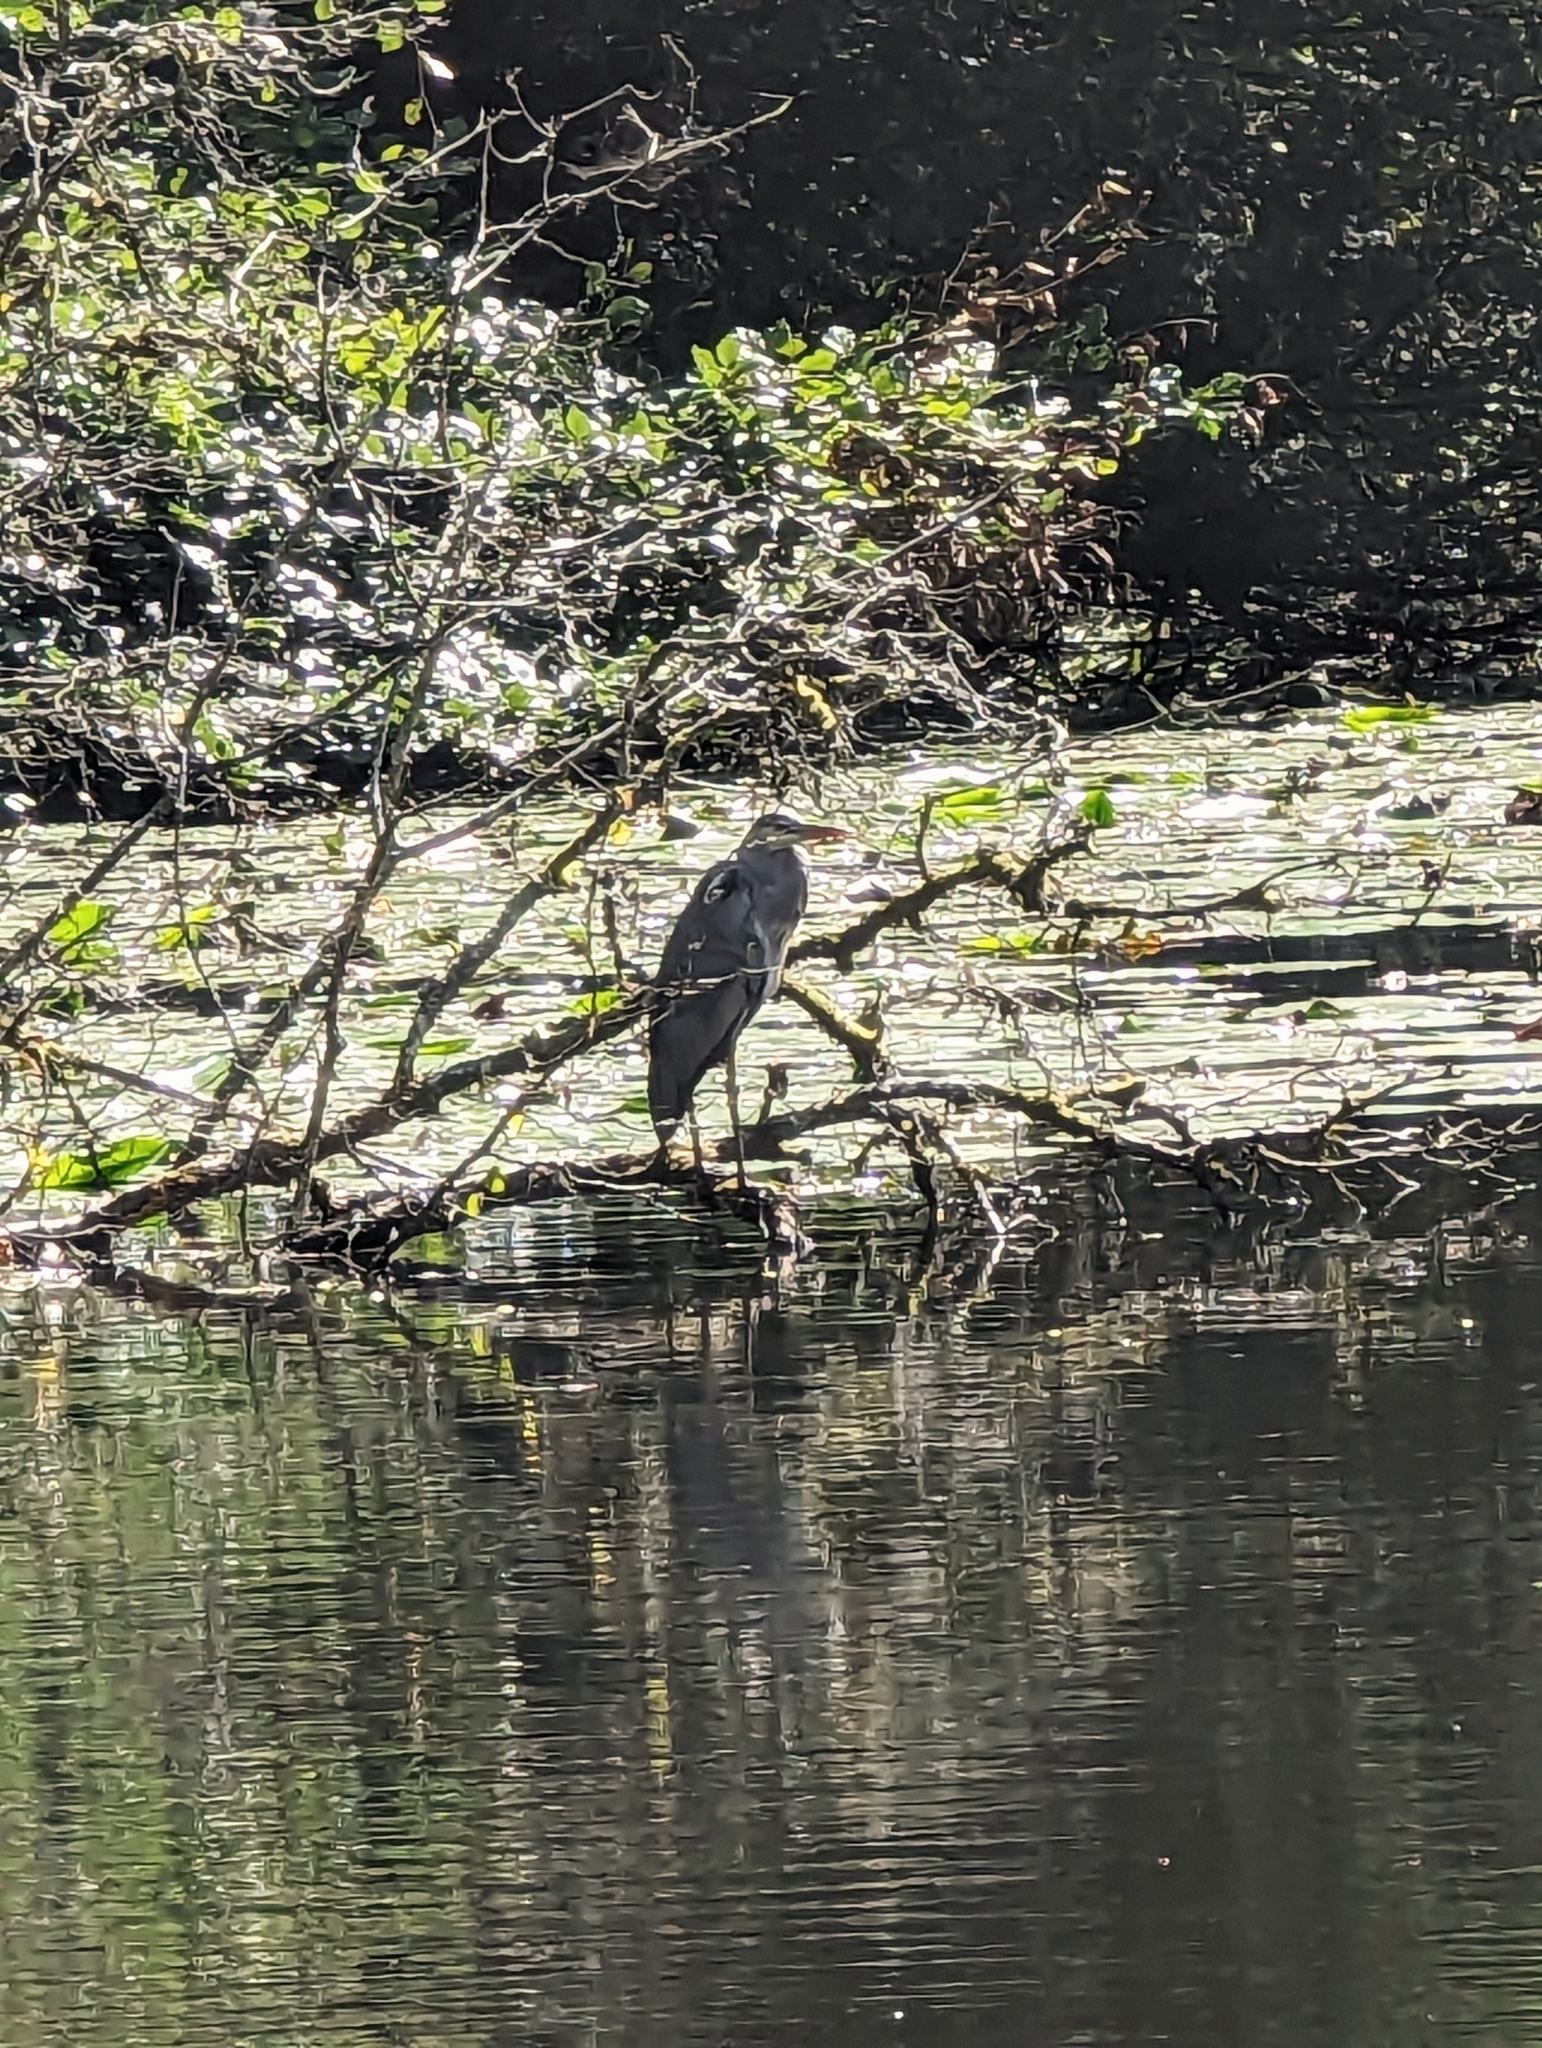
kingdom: Animalia
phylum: Chordata
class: Aves
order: Pelecaniformes
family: Ardeidae
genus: Ardea
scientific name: Ardea cinerea
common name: Grey heron
